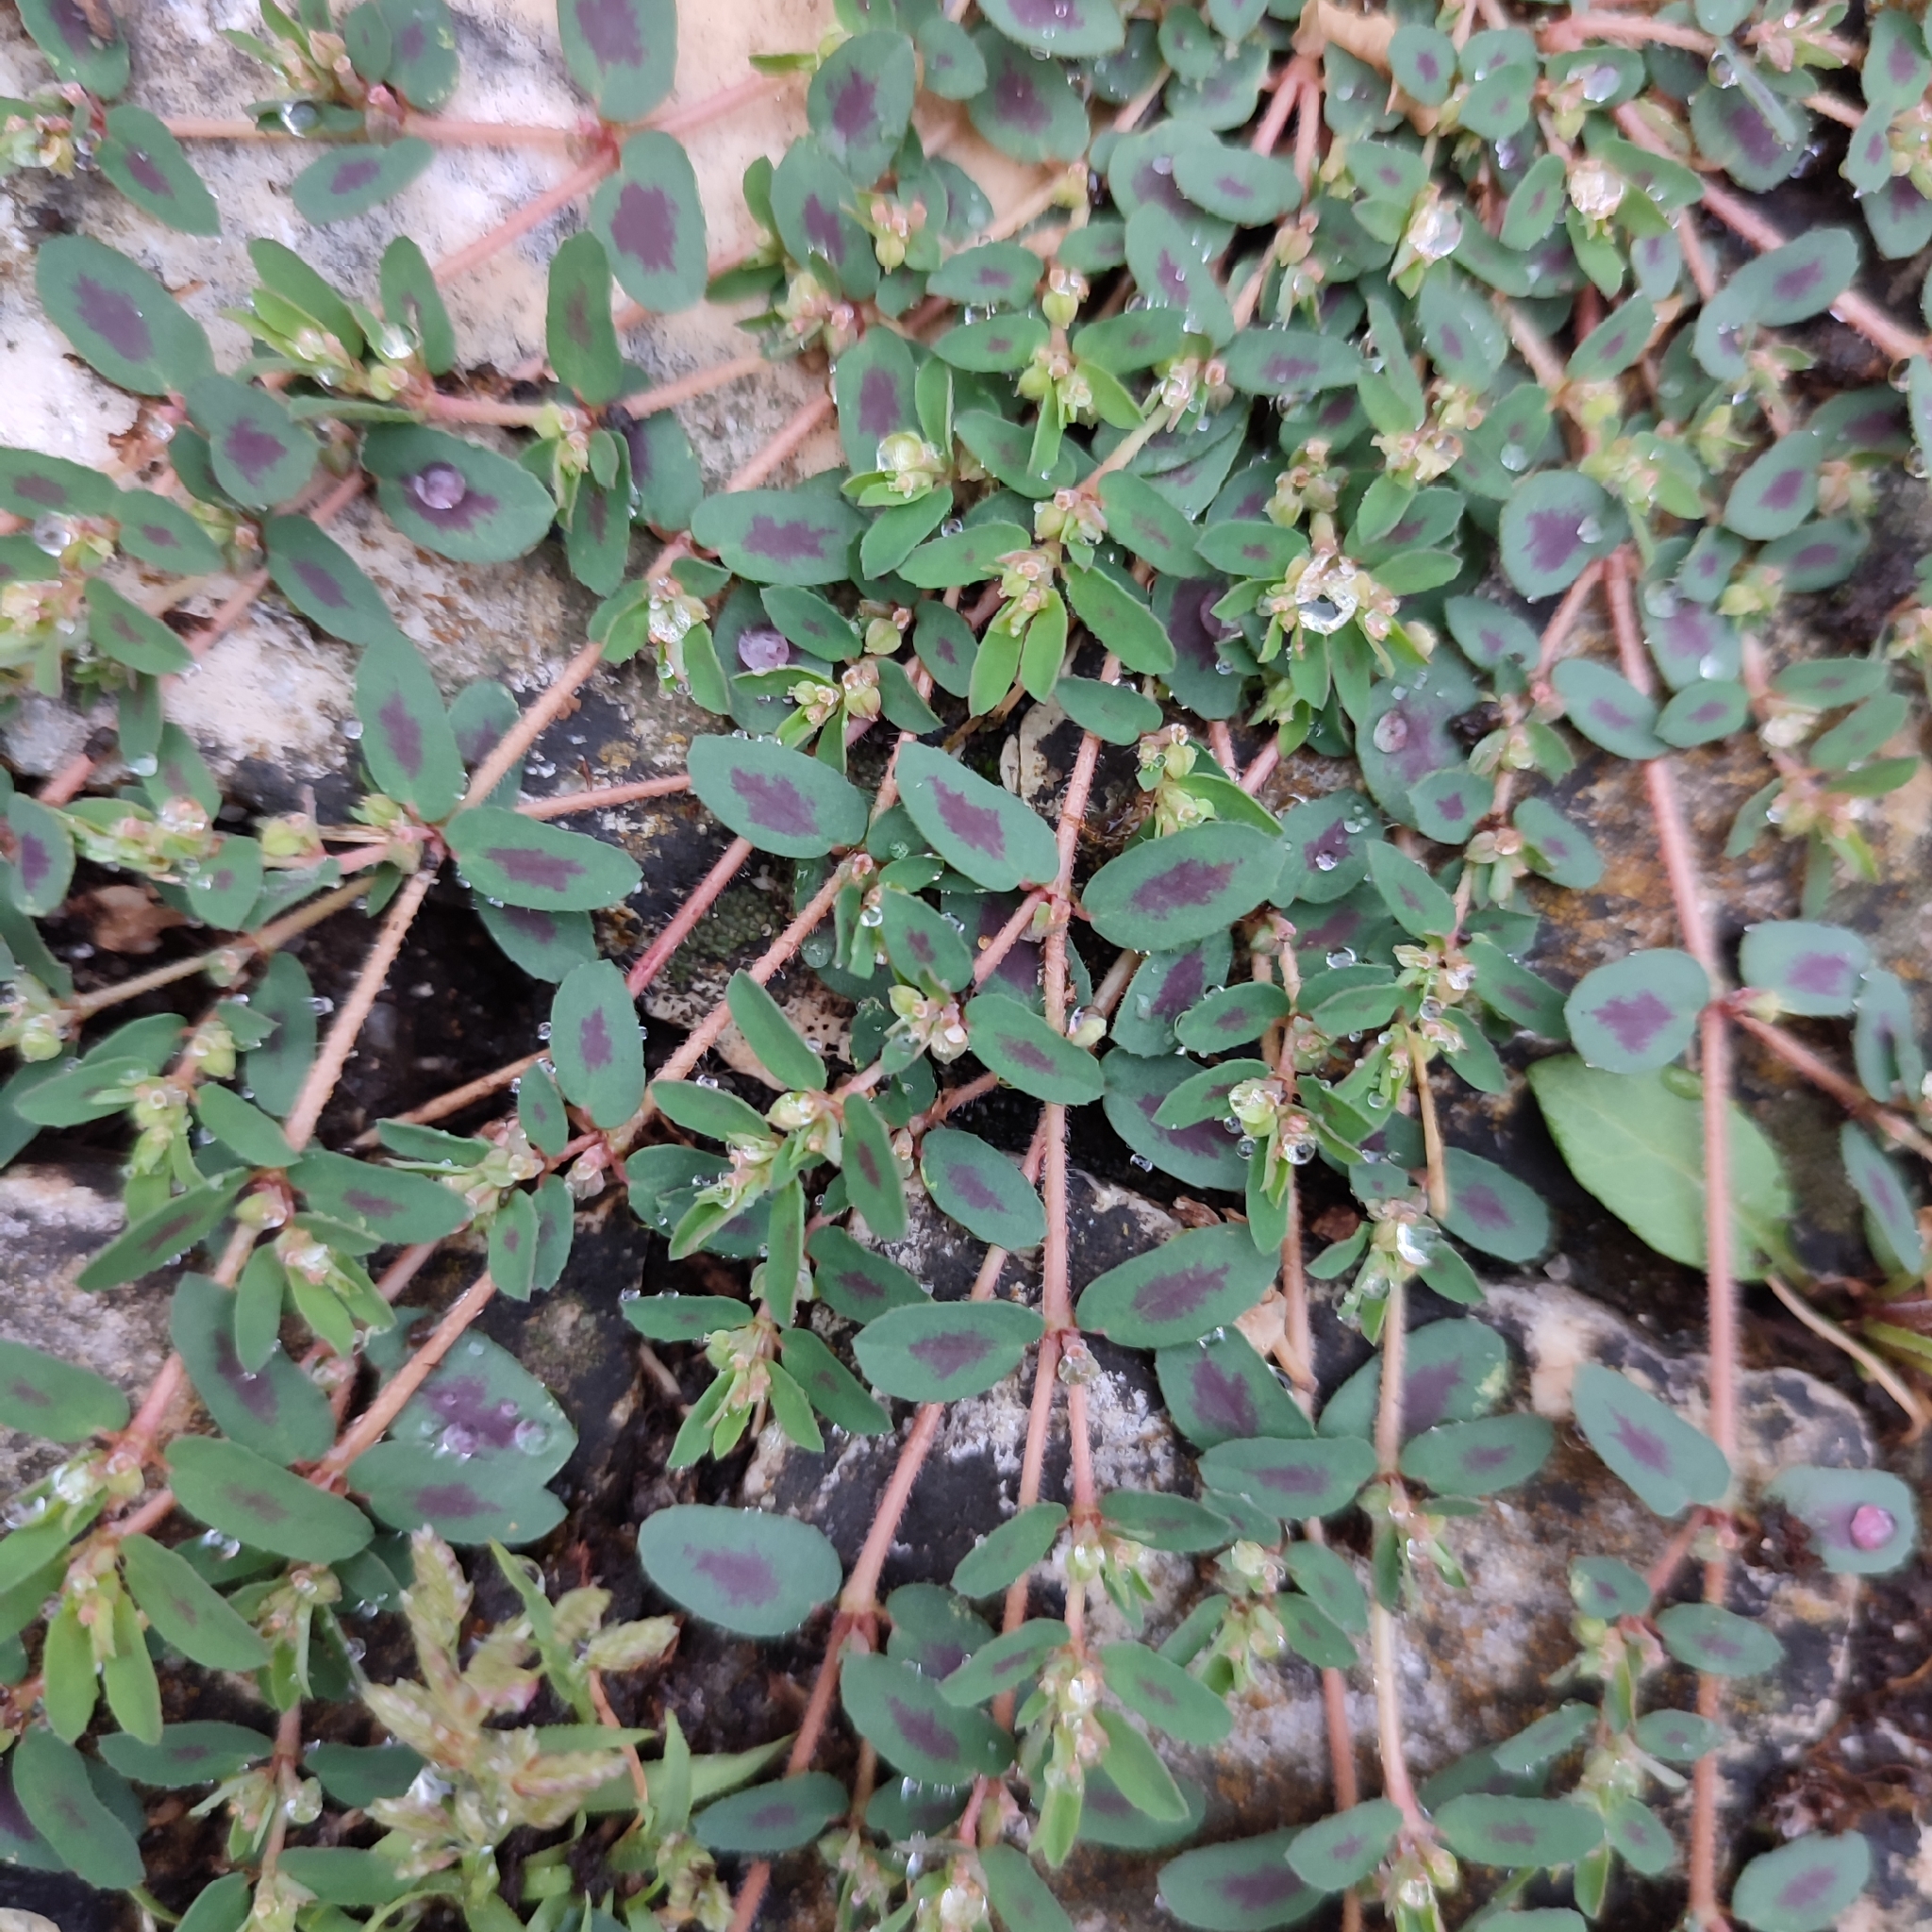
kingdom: Plantae
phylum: Tracheophyta
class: Magnoliopsida
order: Malpighiales
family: Euphorbiaceae
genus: Euphorbia
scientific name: Euphorbia maculata
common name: Spotted spurge
